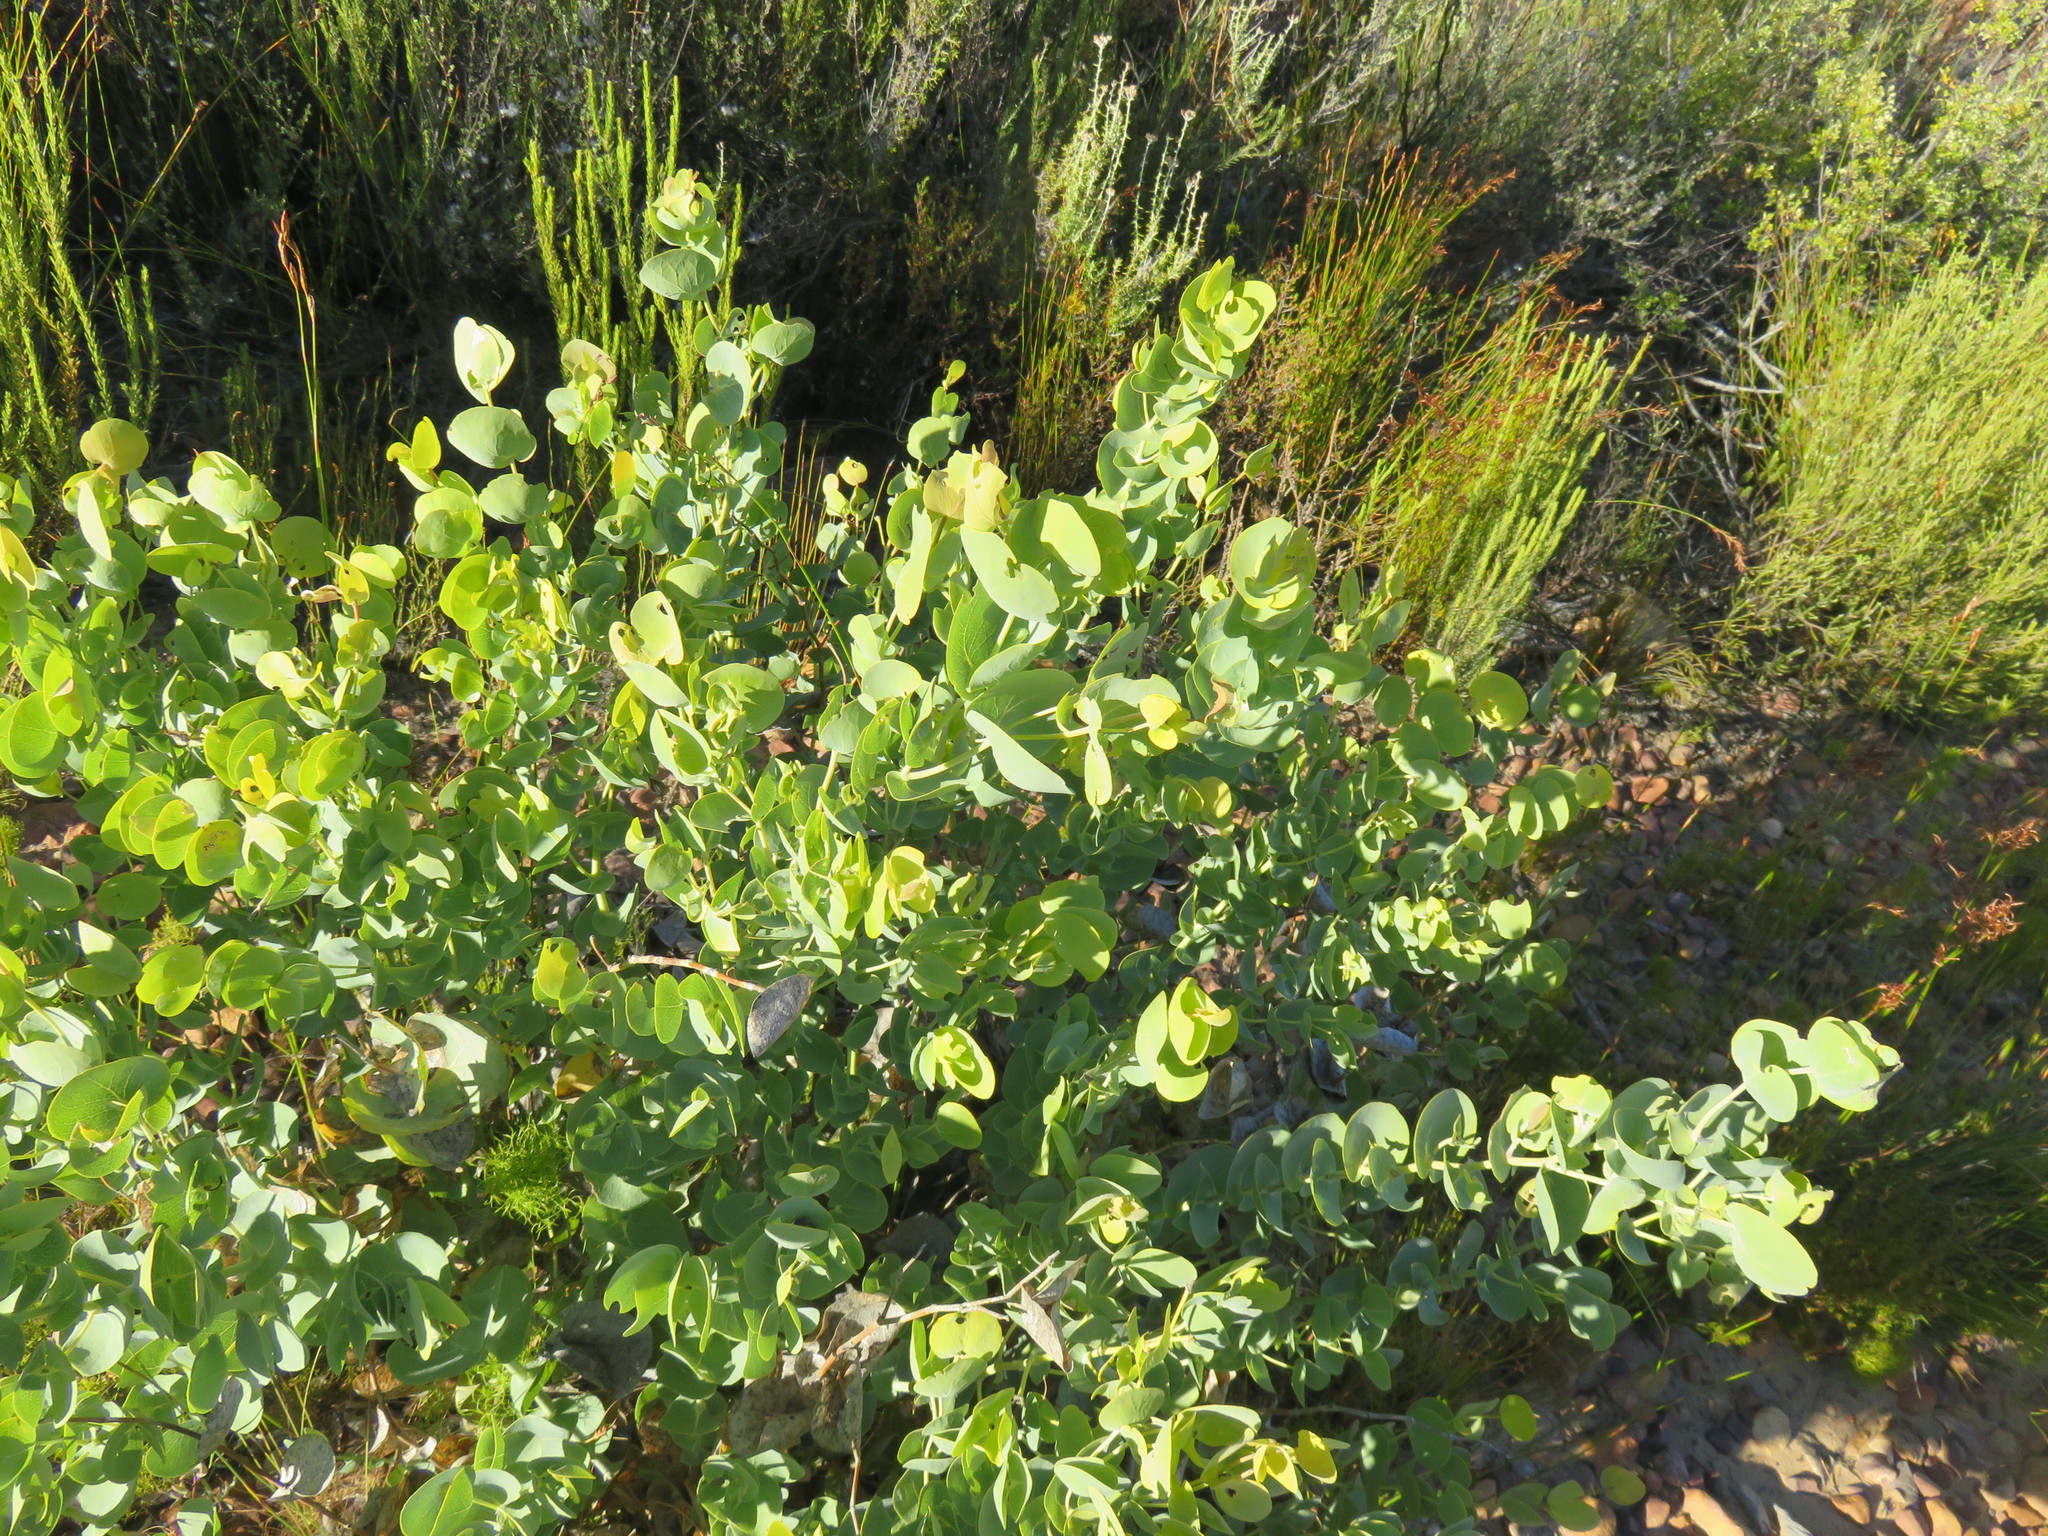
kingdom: Plantae
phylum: Tracheophyta
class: Magnoliopsida
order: Fabales
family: Fabaceae
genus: Rafnia
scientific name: Rafnia amplexicaulis
